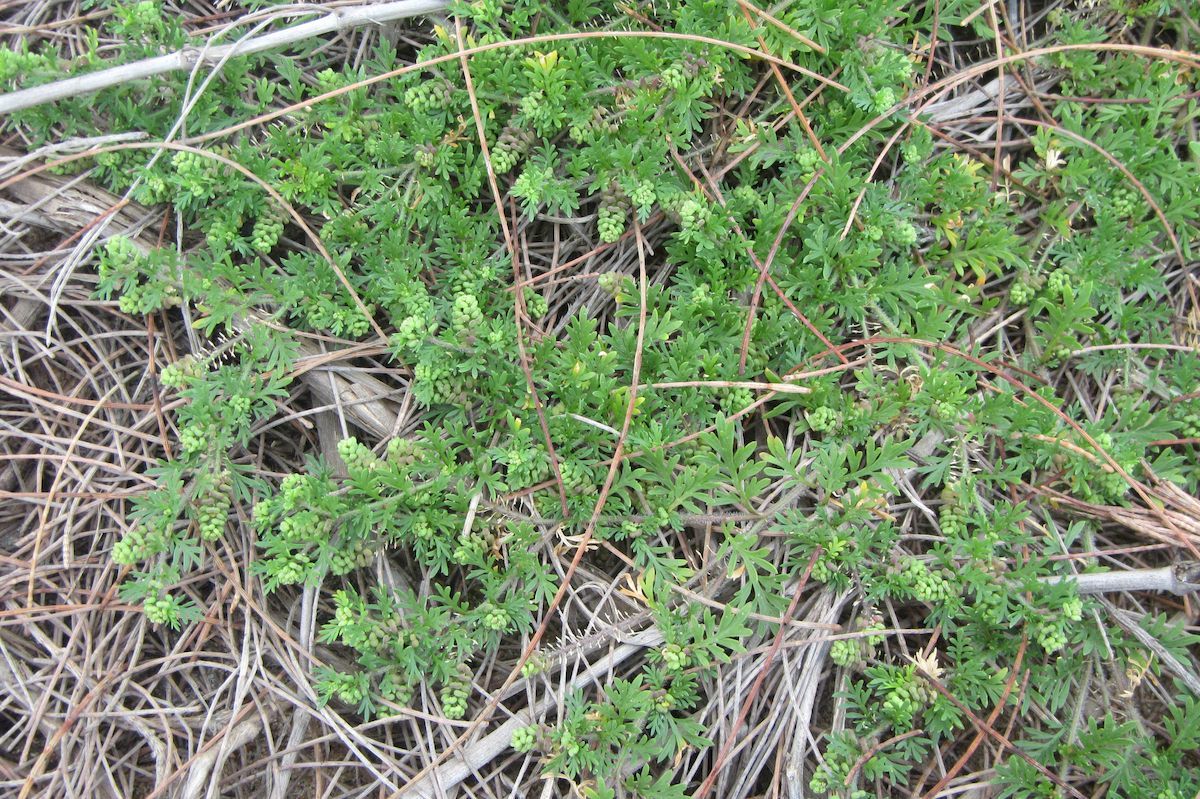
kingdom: Plantae
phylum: Tracheophyta
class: Magnoliopsida
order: Brassicales
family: Brassicaceae
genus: Lepidium
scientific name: Lepidium didymum
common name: Lesser swinecress
